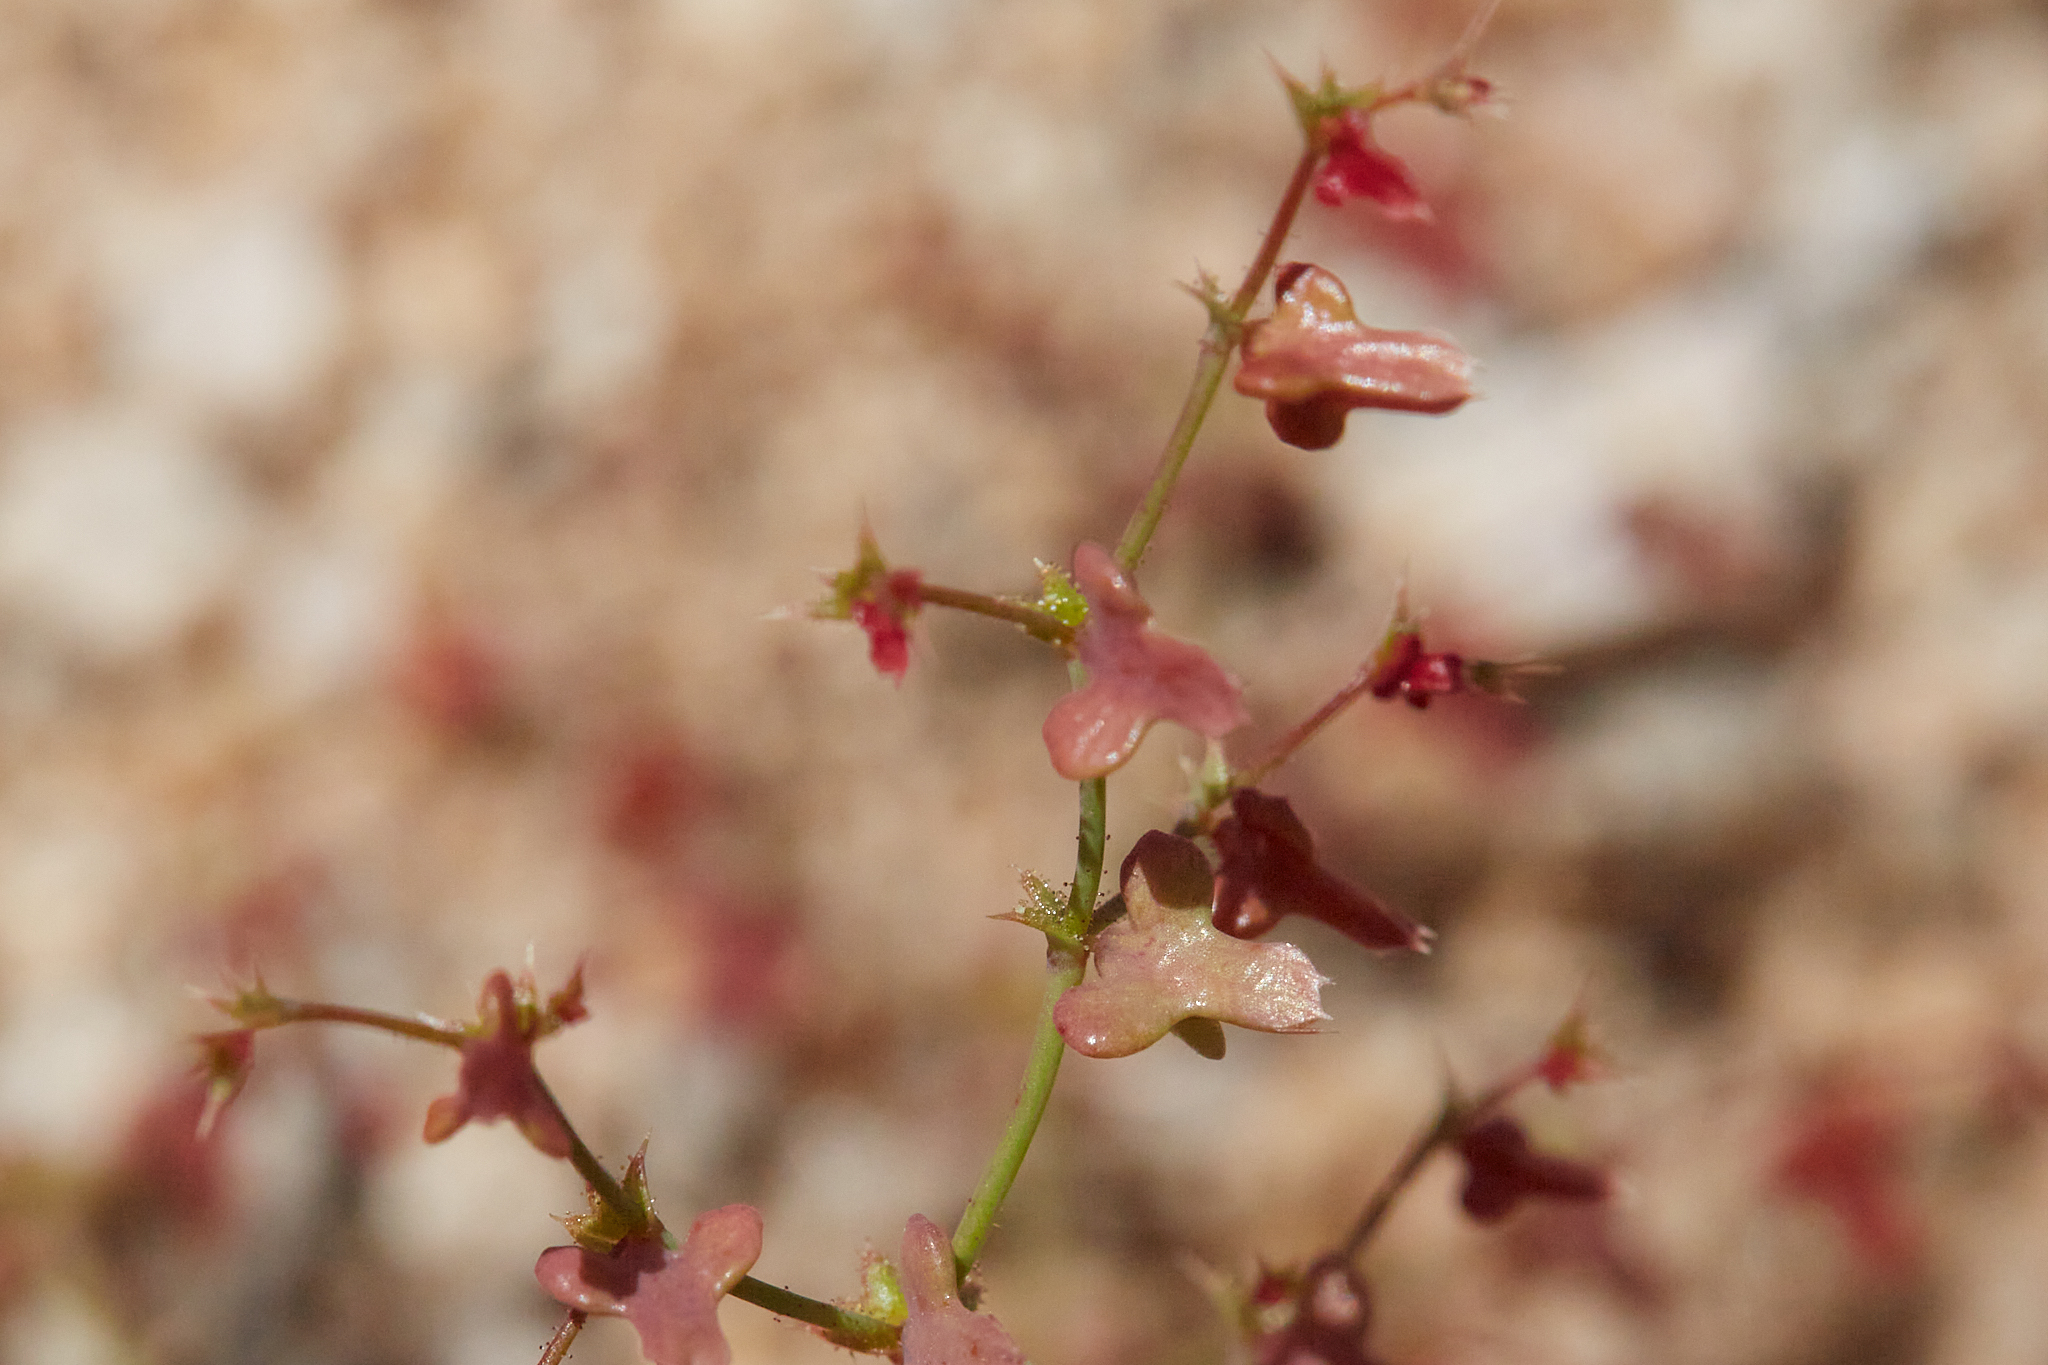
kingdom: Plantae
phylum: Tracheophyta
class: Magnoliopsida
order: Caryophyllales
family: Polygonaceae
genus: Centrostegia
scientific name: Centrostegia thurberi
